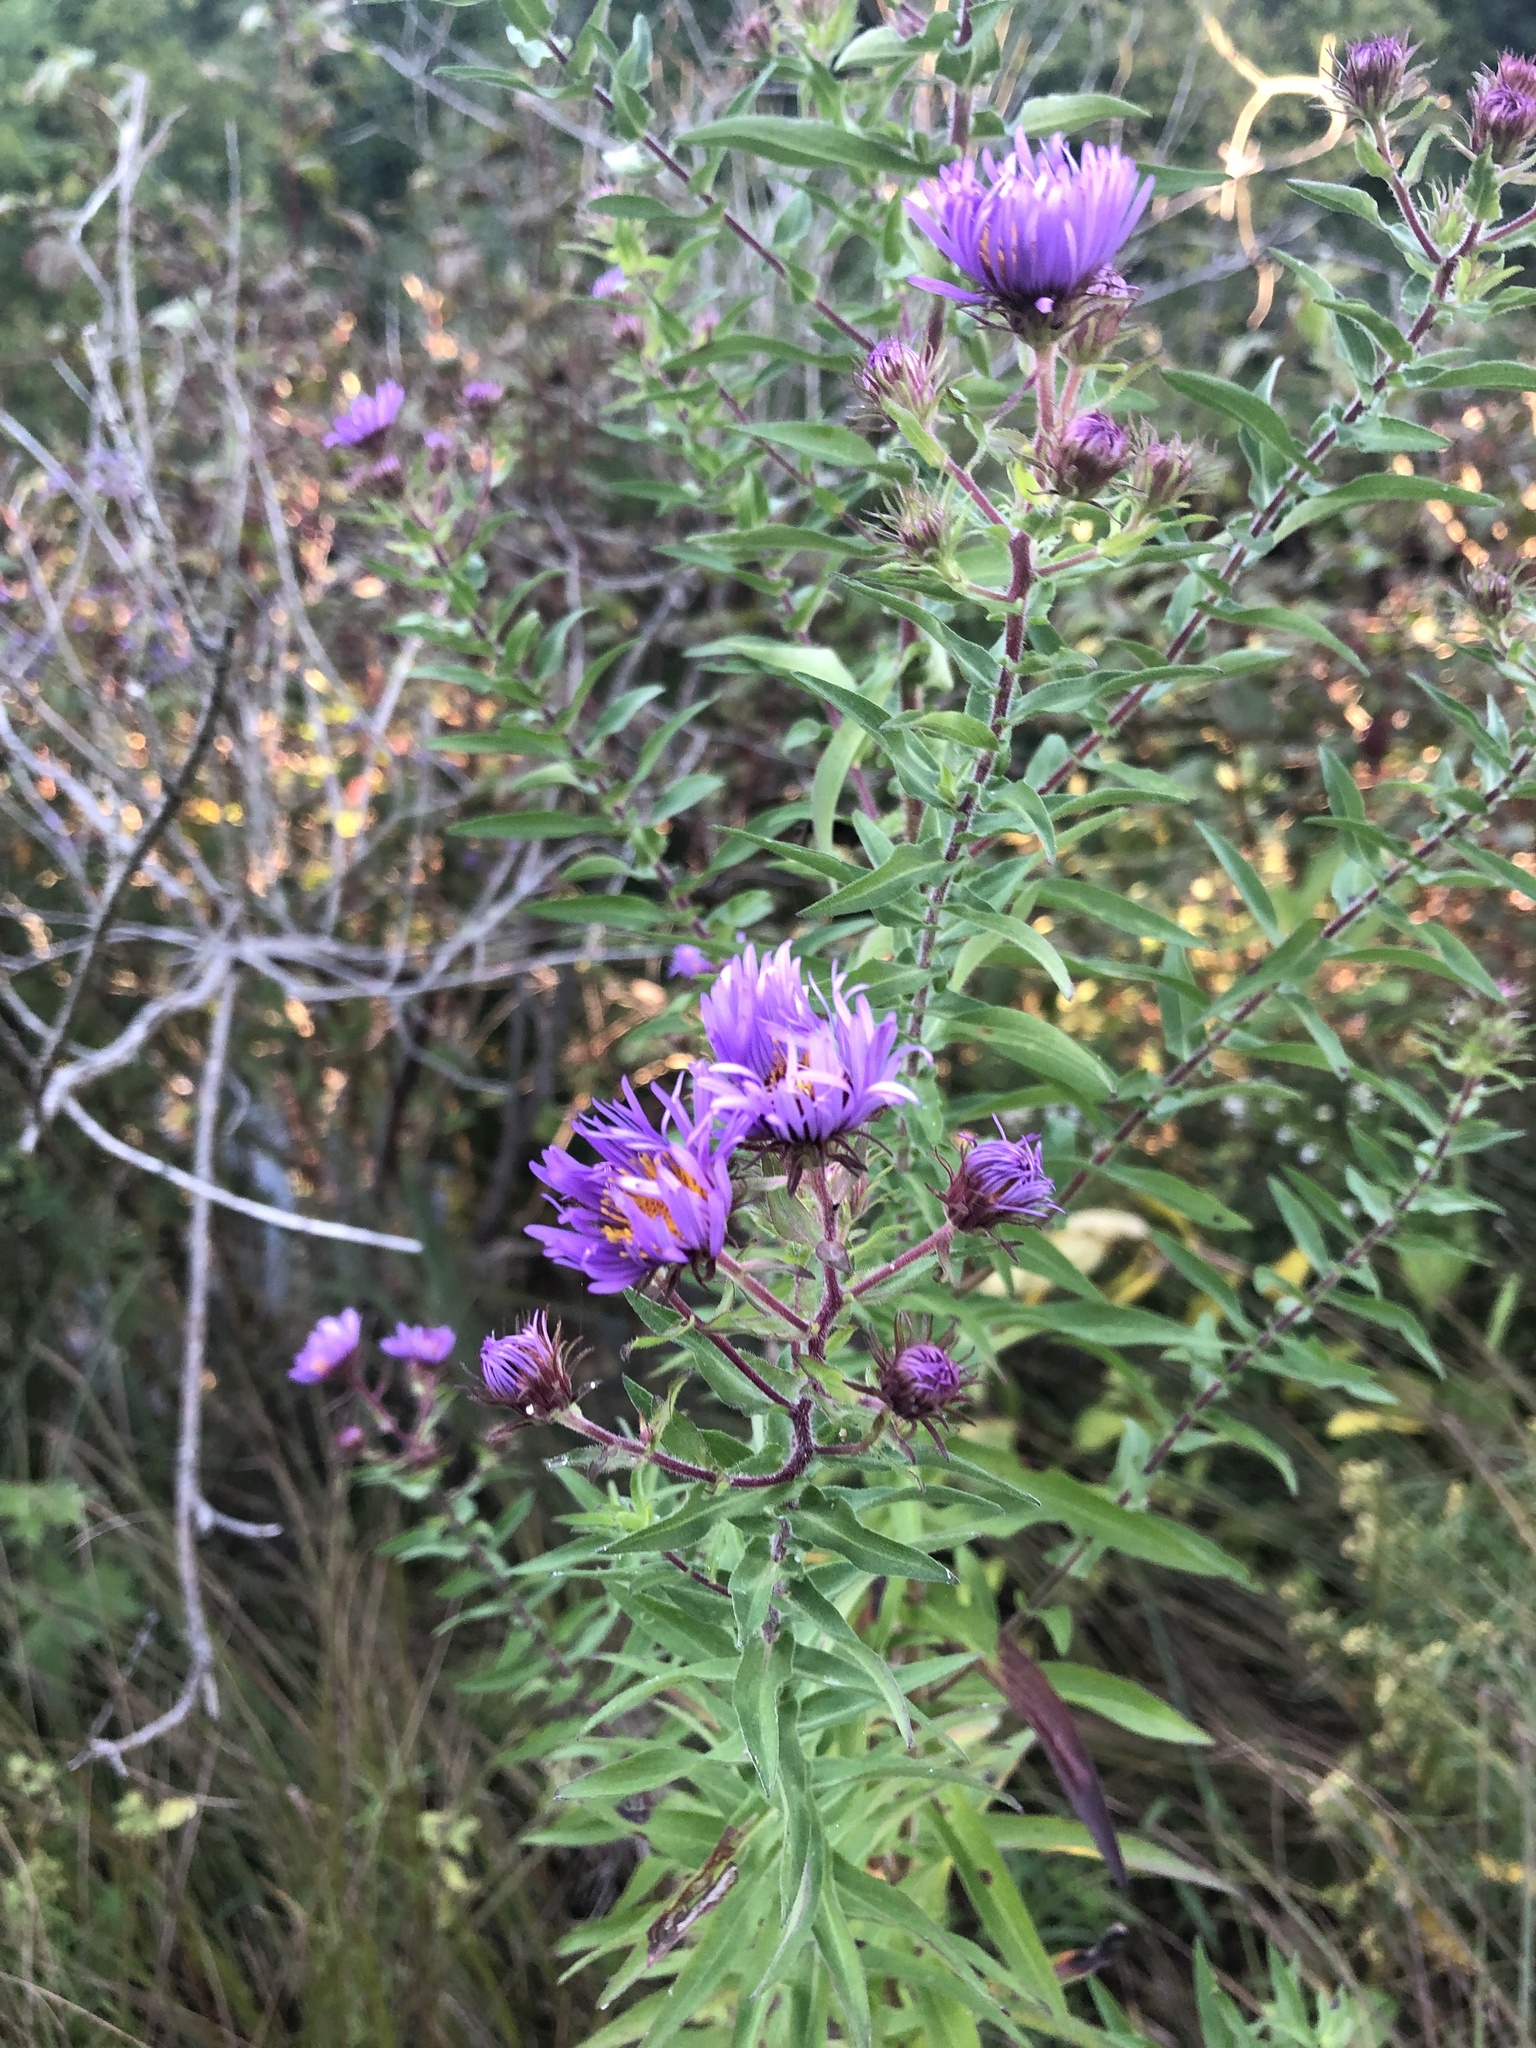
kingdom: Plantae
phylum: Tracheophyta
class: Magnoliopsida
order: Asterales
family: Asteraceae
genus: Symphyotrichum
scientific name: Symphyotrichum novae-angliae
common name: Michaelmas daisy
